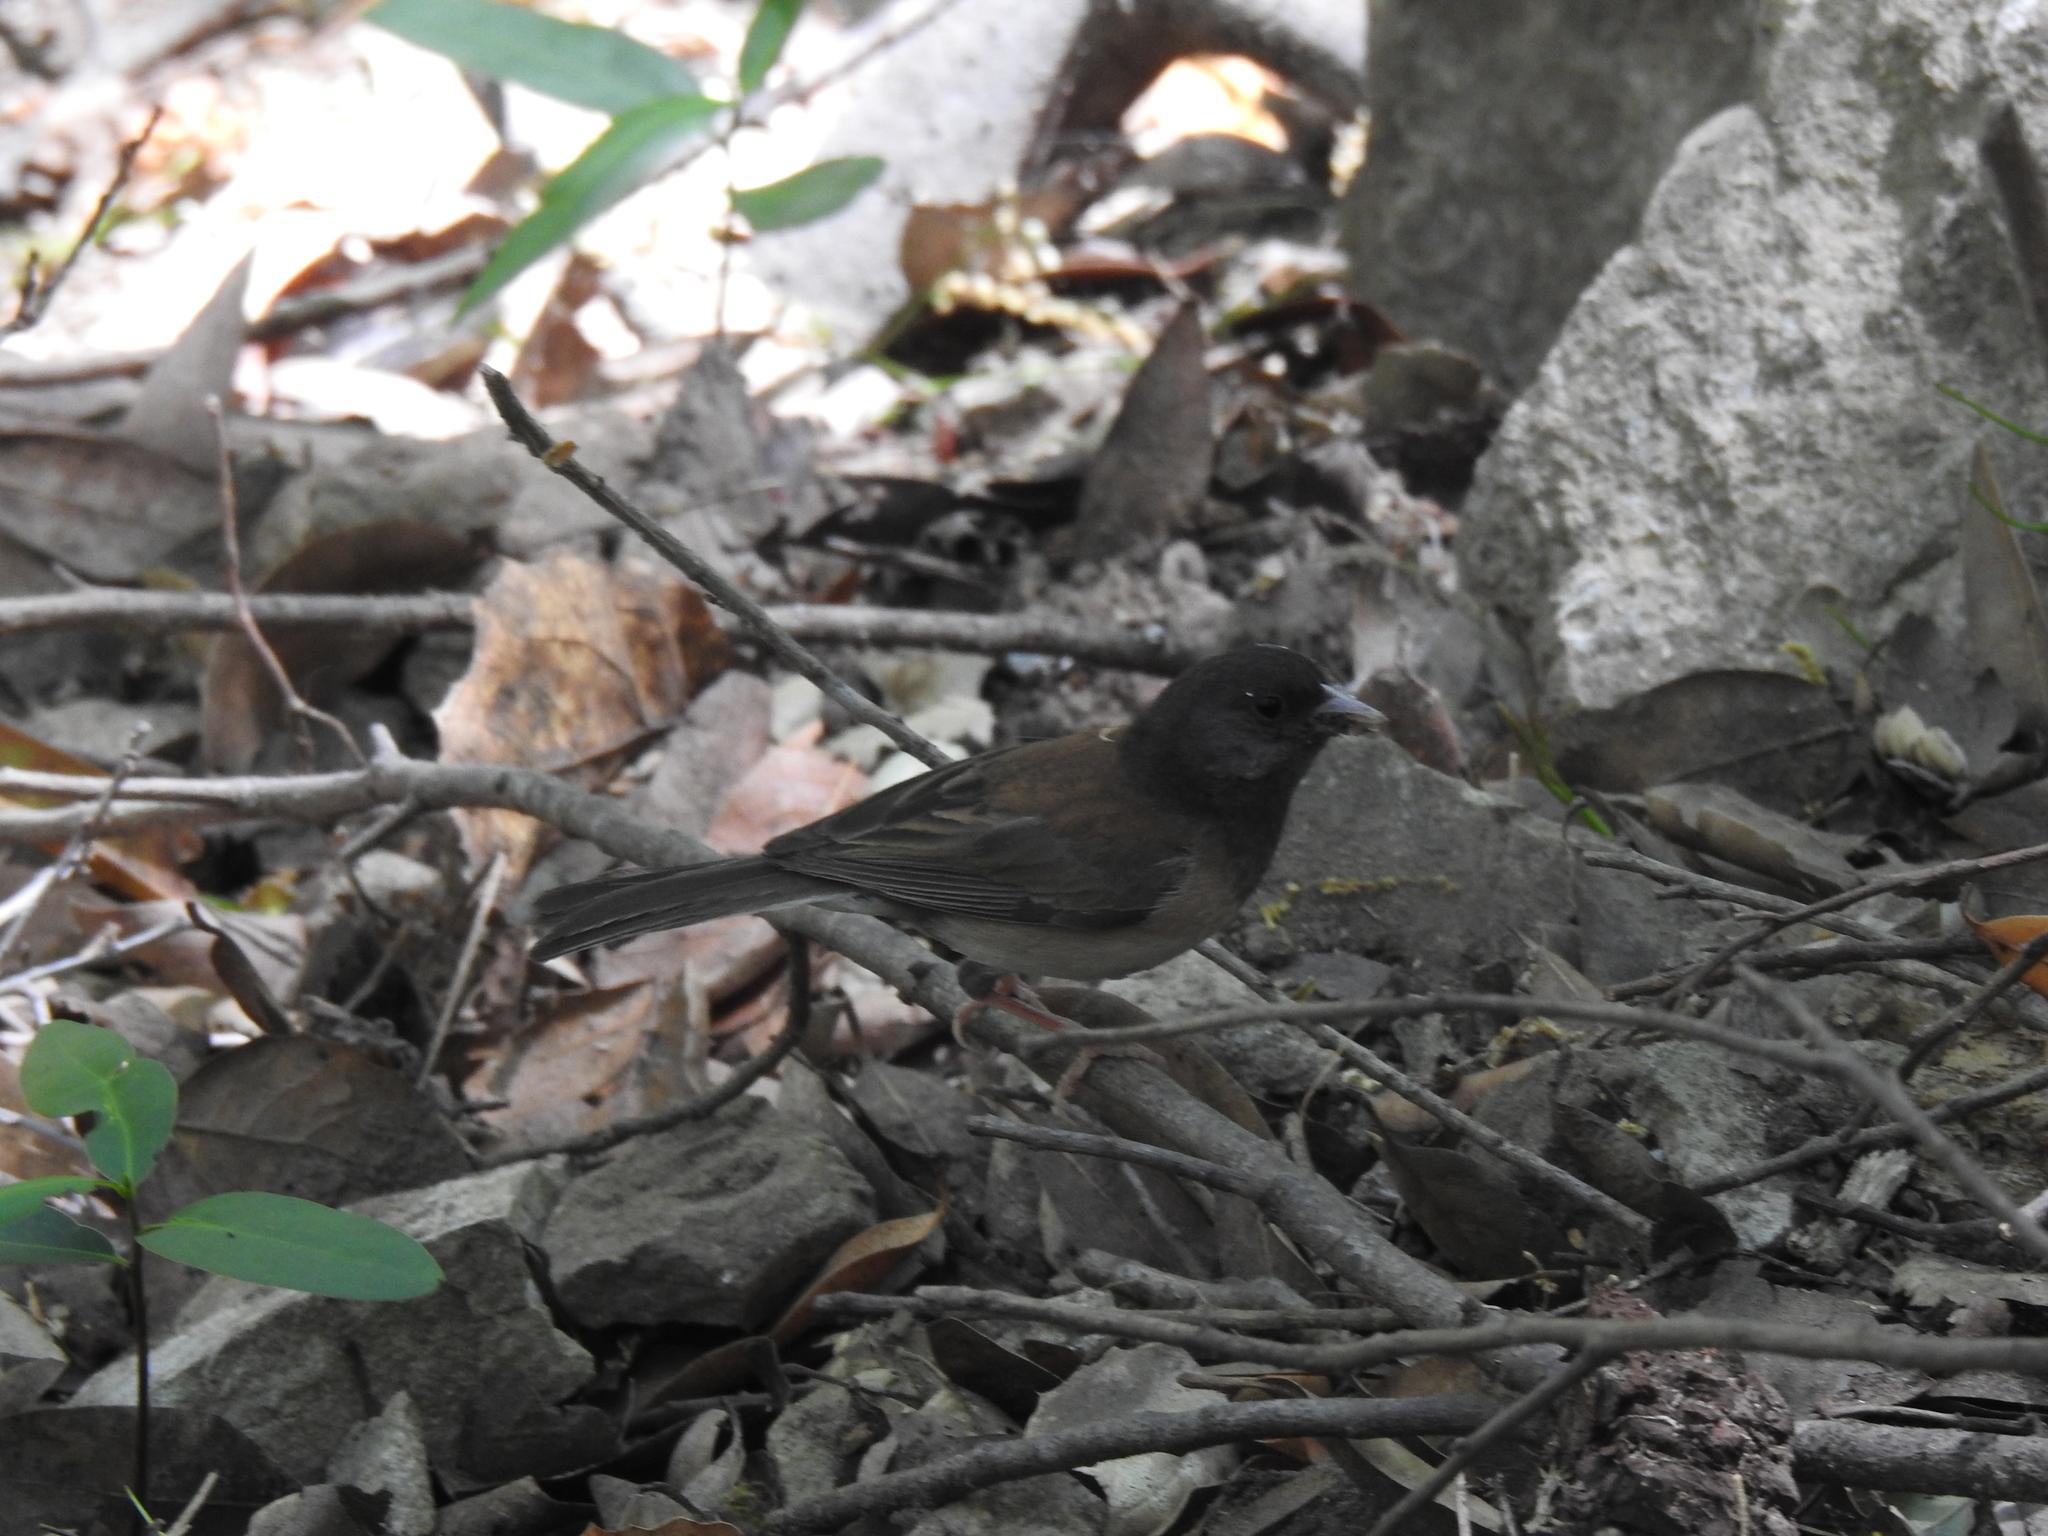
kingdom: Animalia
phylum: Chordata
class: Aves
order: Passeriformes
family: Passerellidae
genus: Junco
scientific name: Junco hyemalis
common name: Dark-eyed junco
